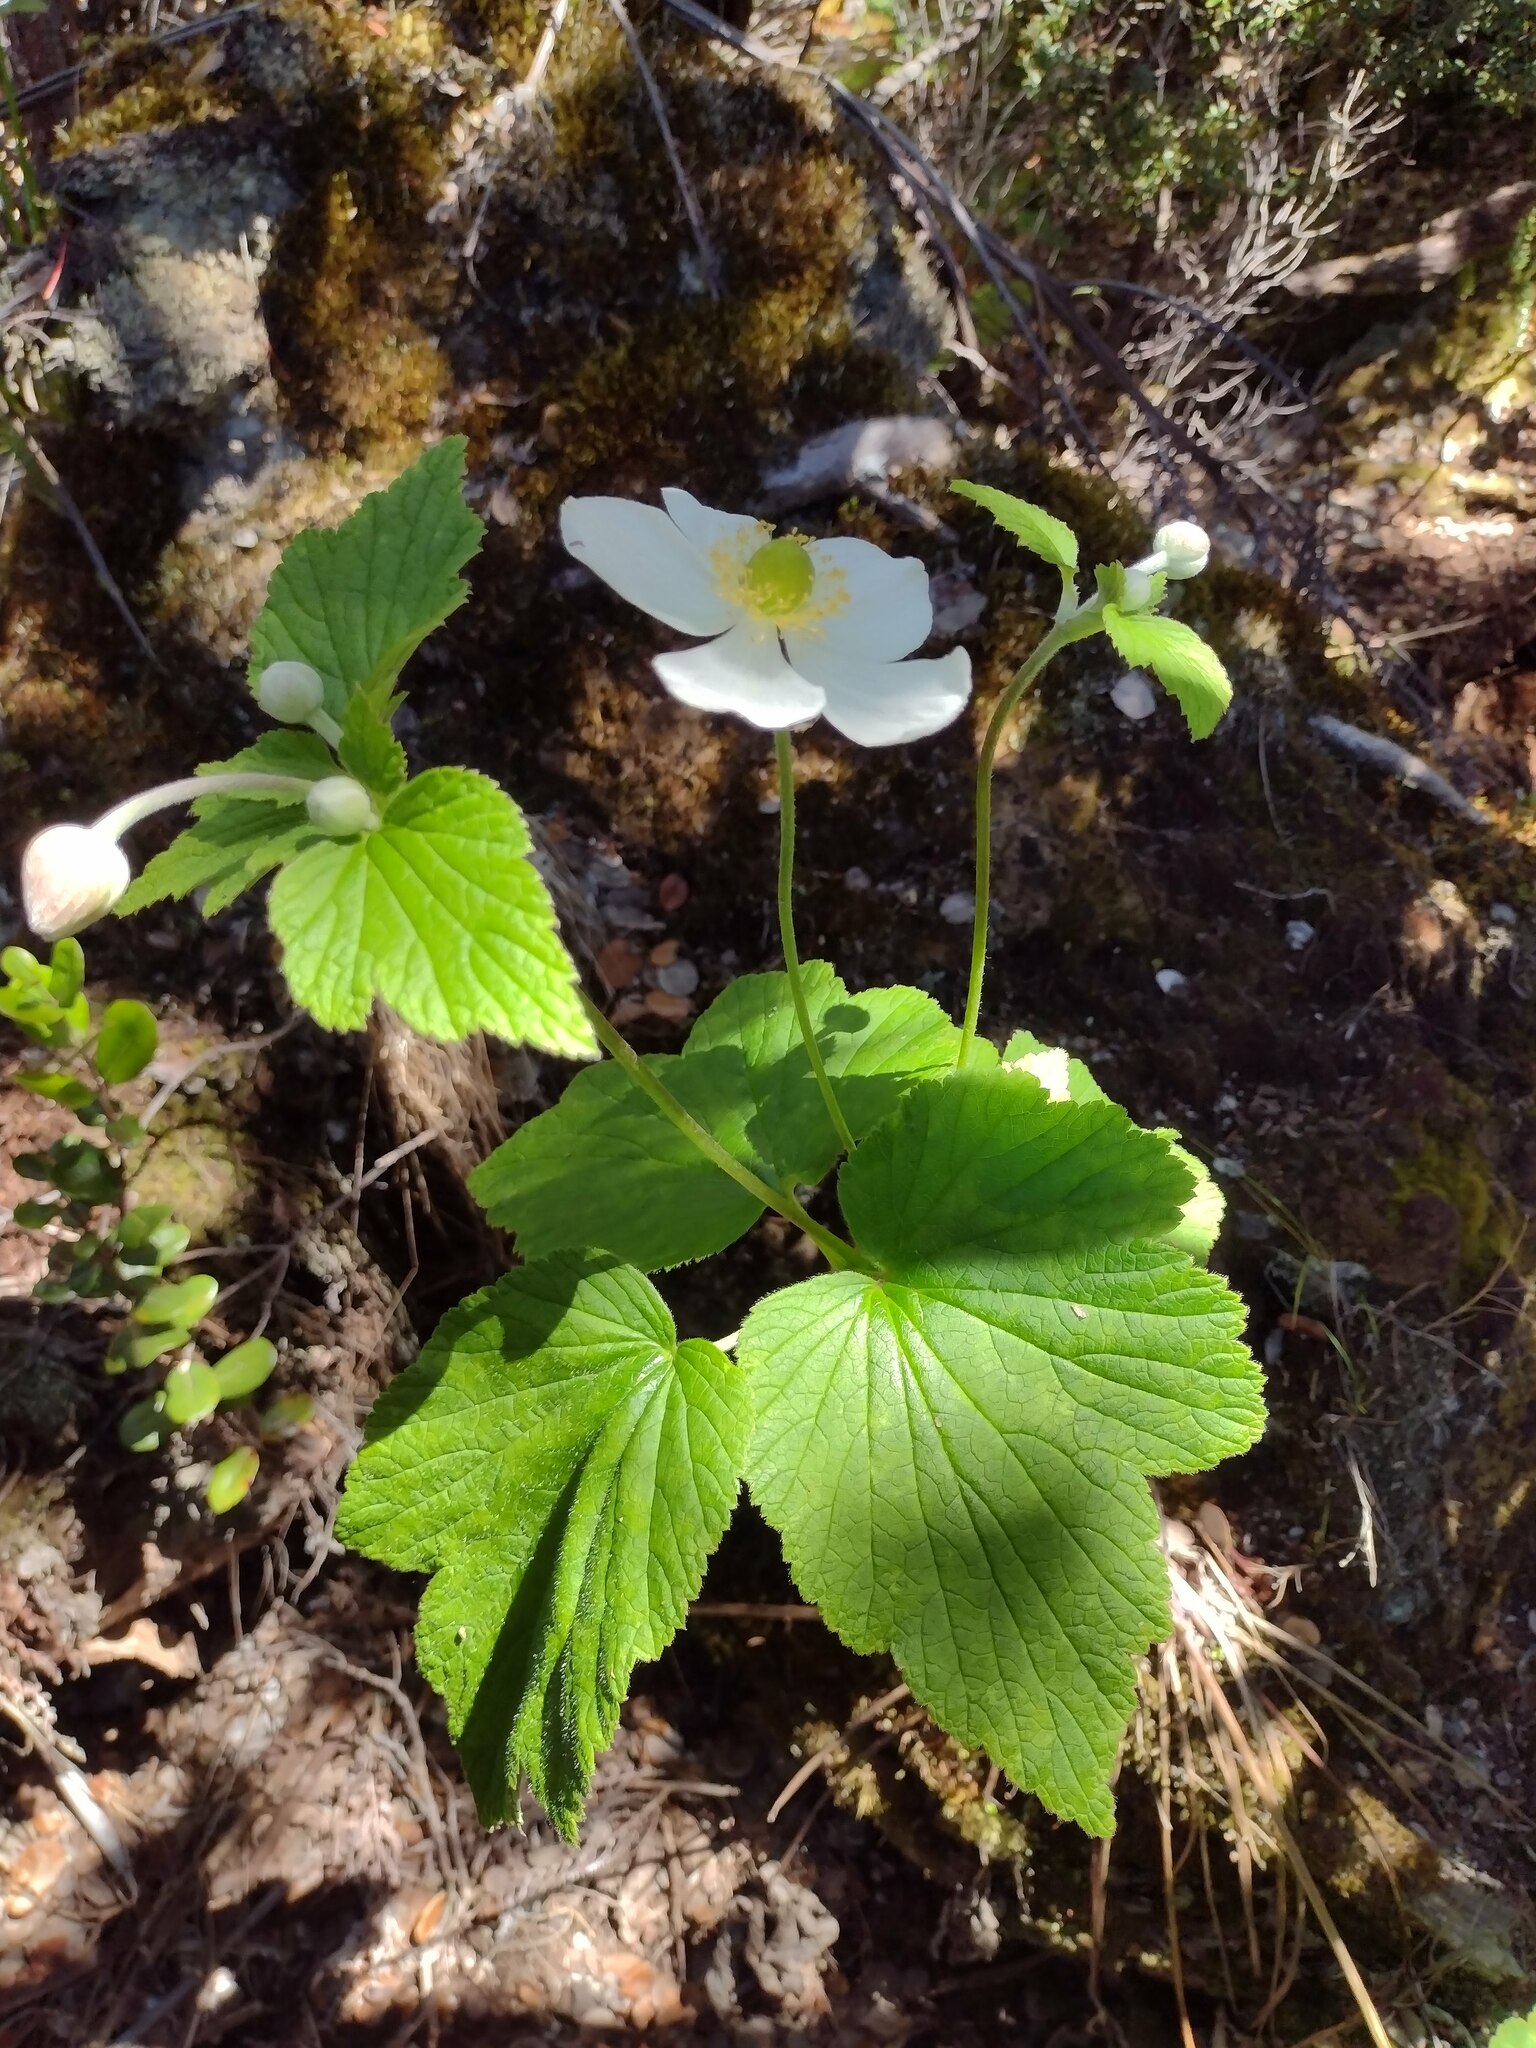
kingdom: Plantae
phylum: Tracheophyta
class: Magnoliopsida
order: Ranunculales
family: Ranunculaceae
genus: Eriocapitella
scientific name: Eriocapitella japonica
